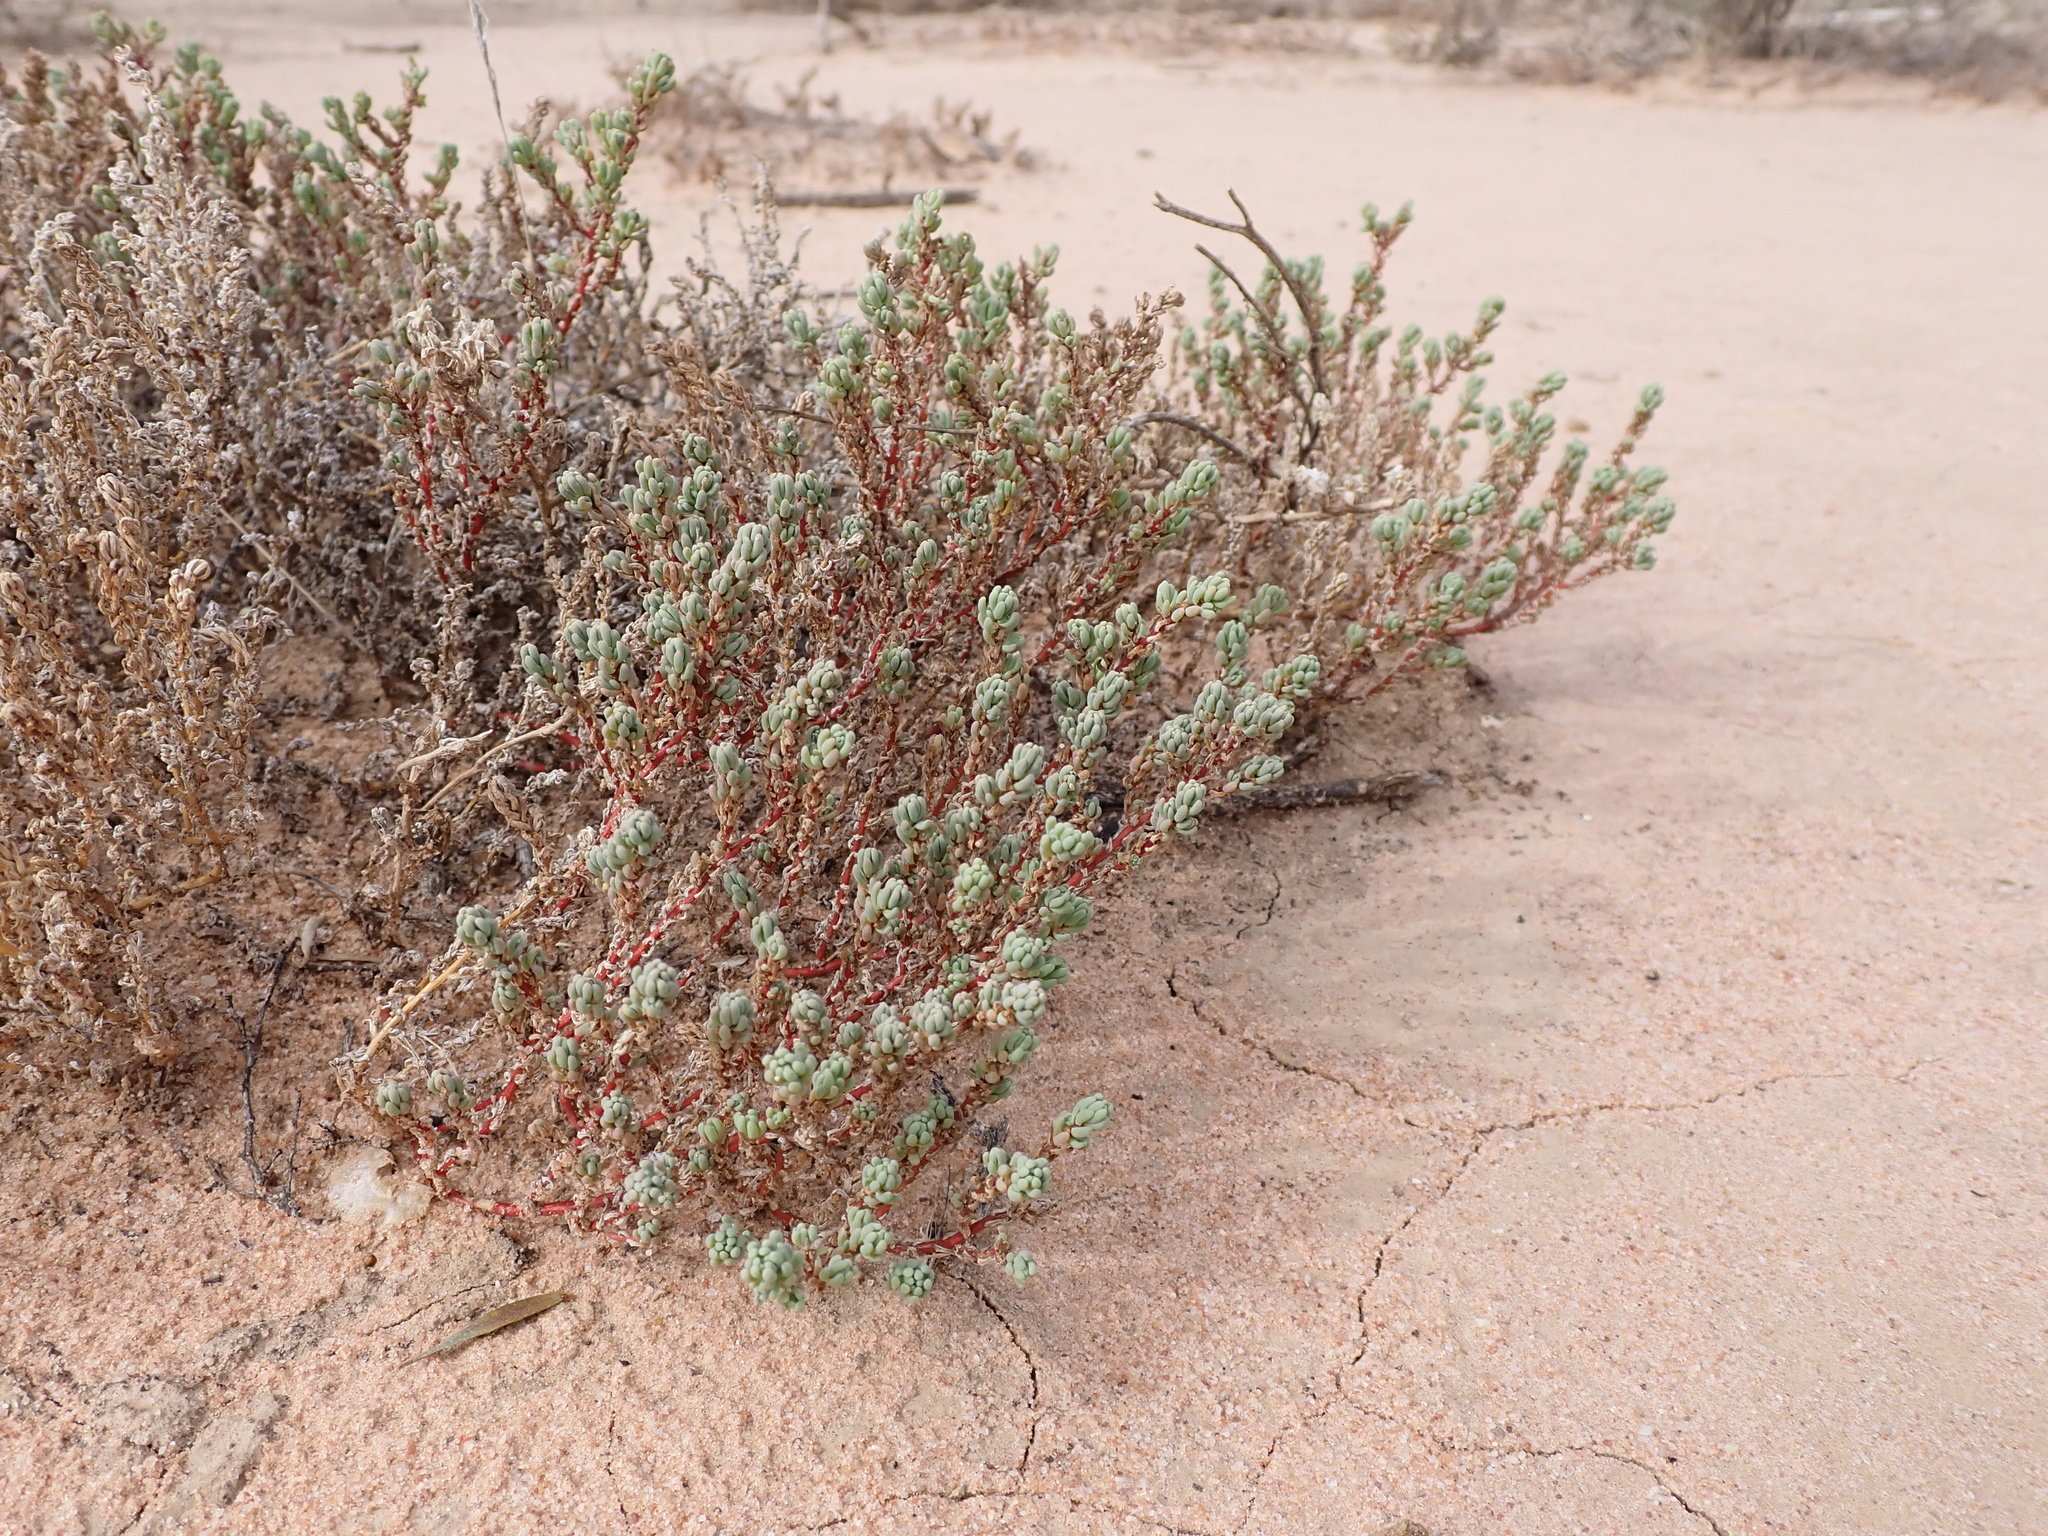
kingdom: Plantae
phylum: Tracheophyta
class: Magnoliopsida
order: Caryophyllales
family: Amaranthaceae
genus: Osteocarpum
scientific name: Osteocarpum acropterum
